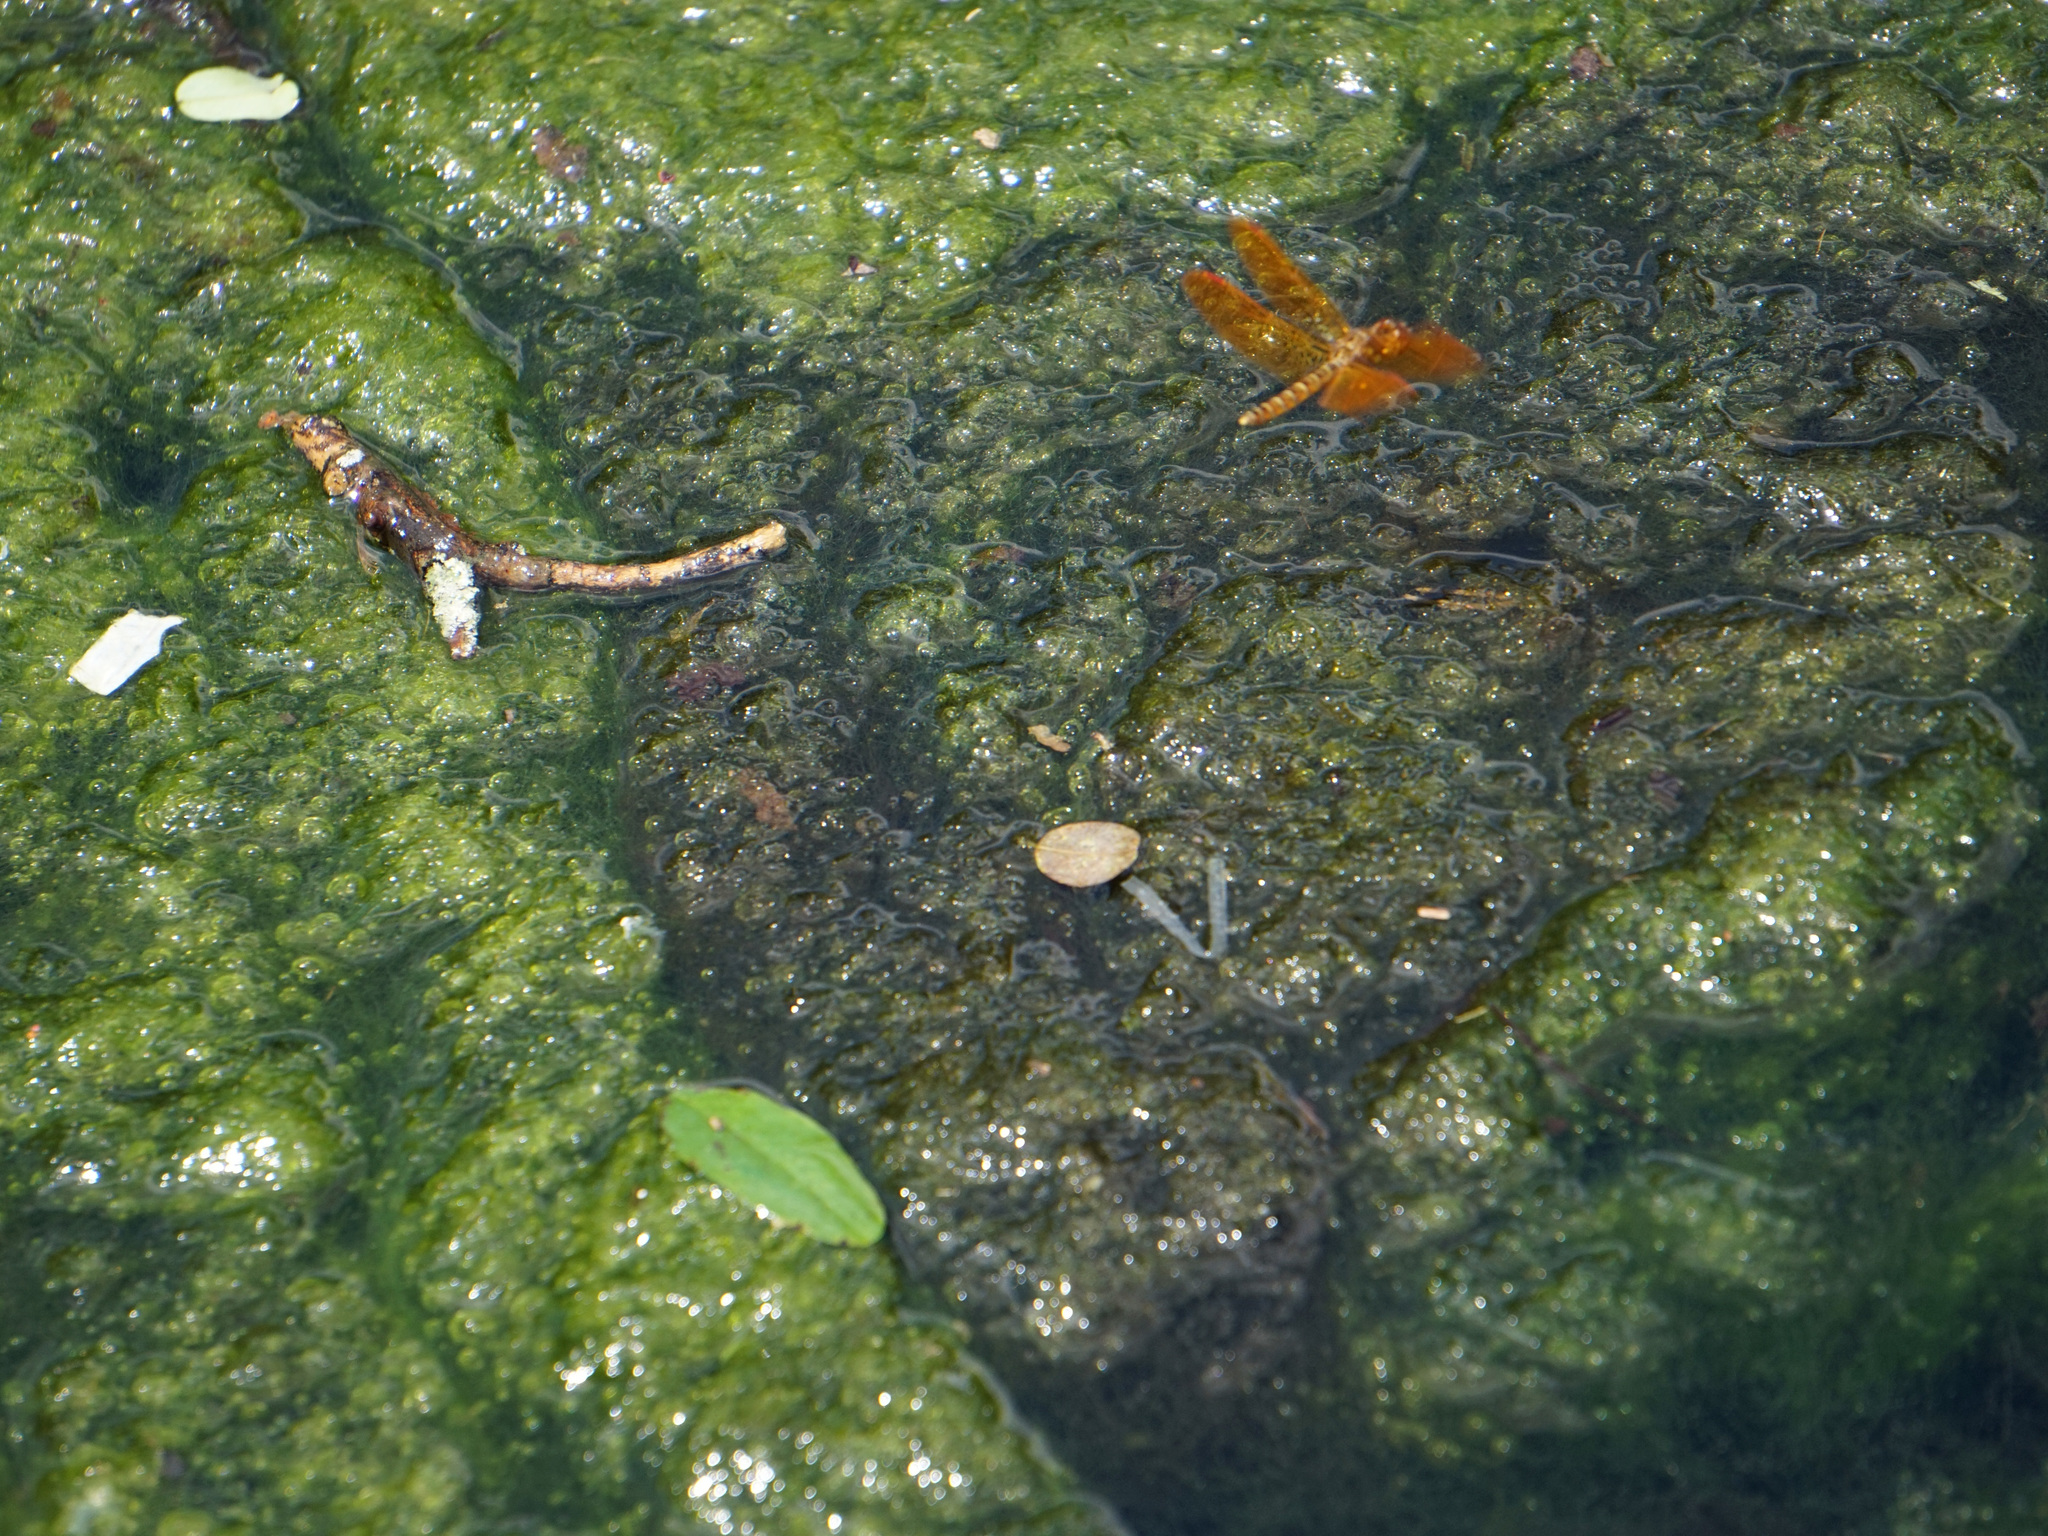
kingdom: Animalia
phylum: Arthropoda
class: Insecta
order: Odonata
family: Libellulidae
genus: Perithemis
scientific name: Perithemis tenera
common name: Eastern amberwing
